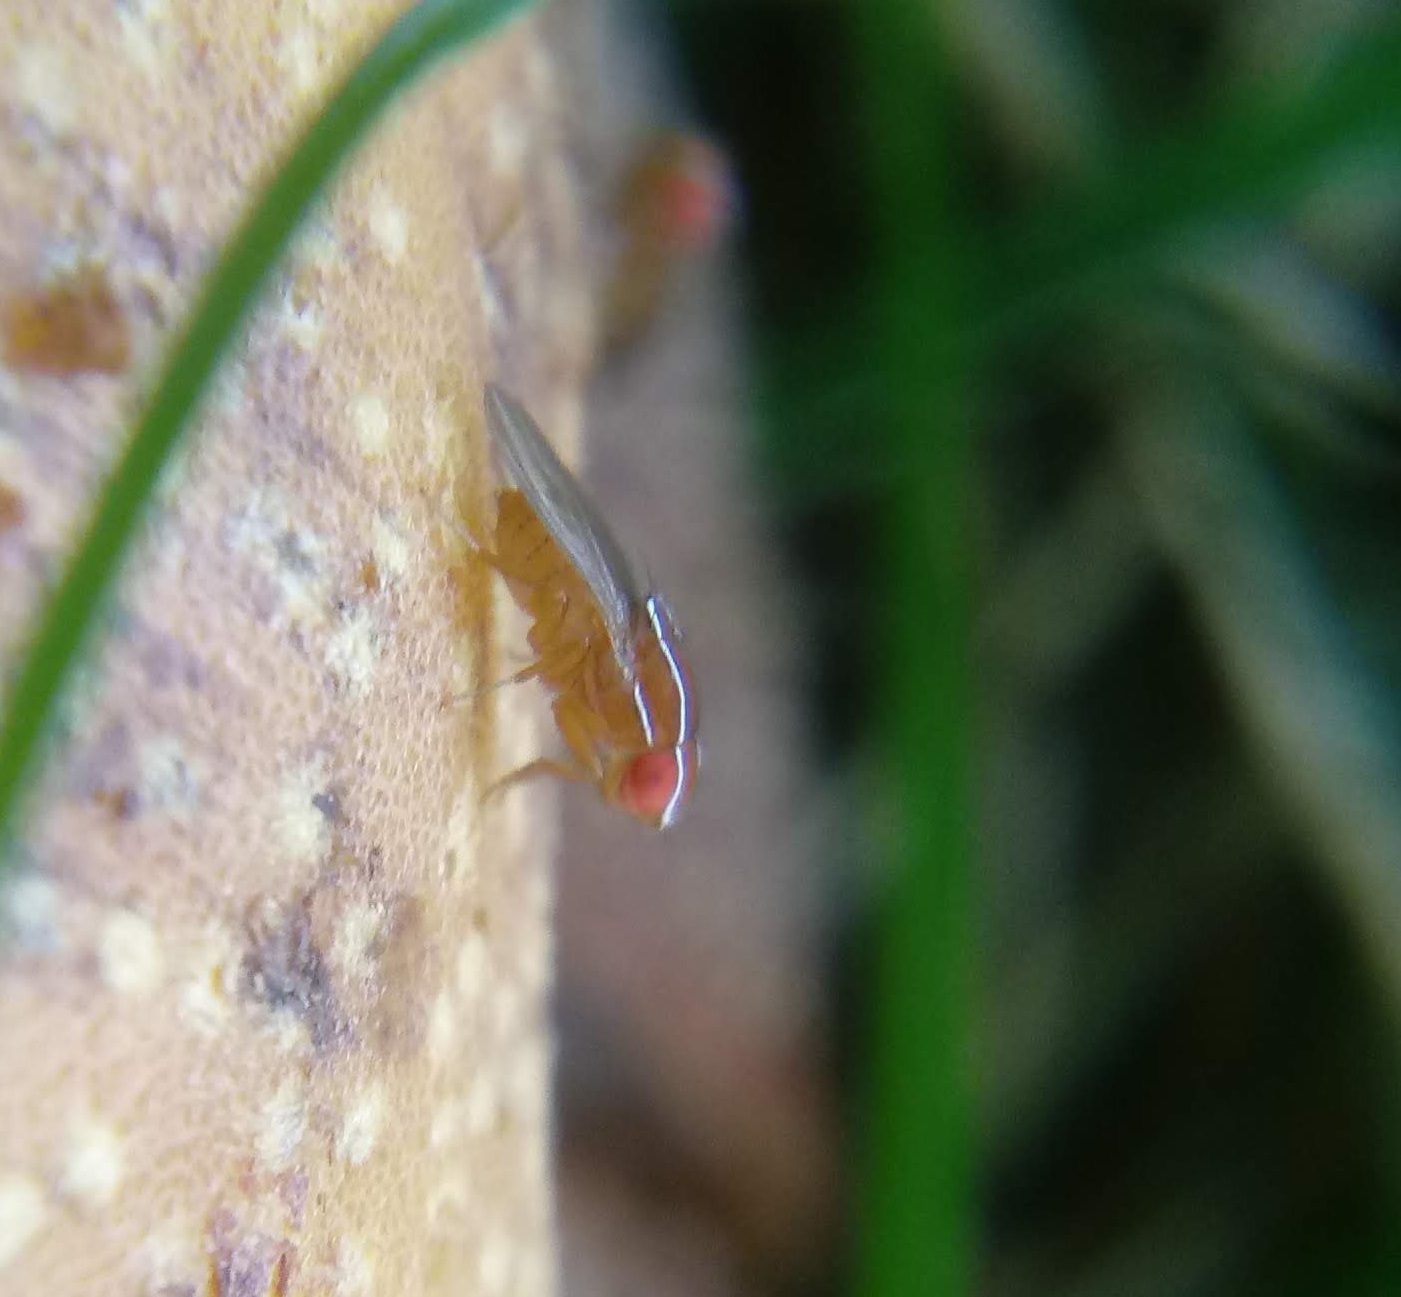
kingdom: Animalia
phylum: Arthropoda
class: Insecta
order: Diptera
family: Drosophilidae
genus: Zaprionus
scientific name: Zaprionus indianus
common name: African fig fly
